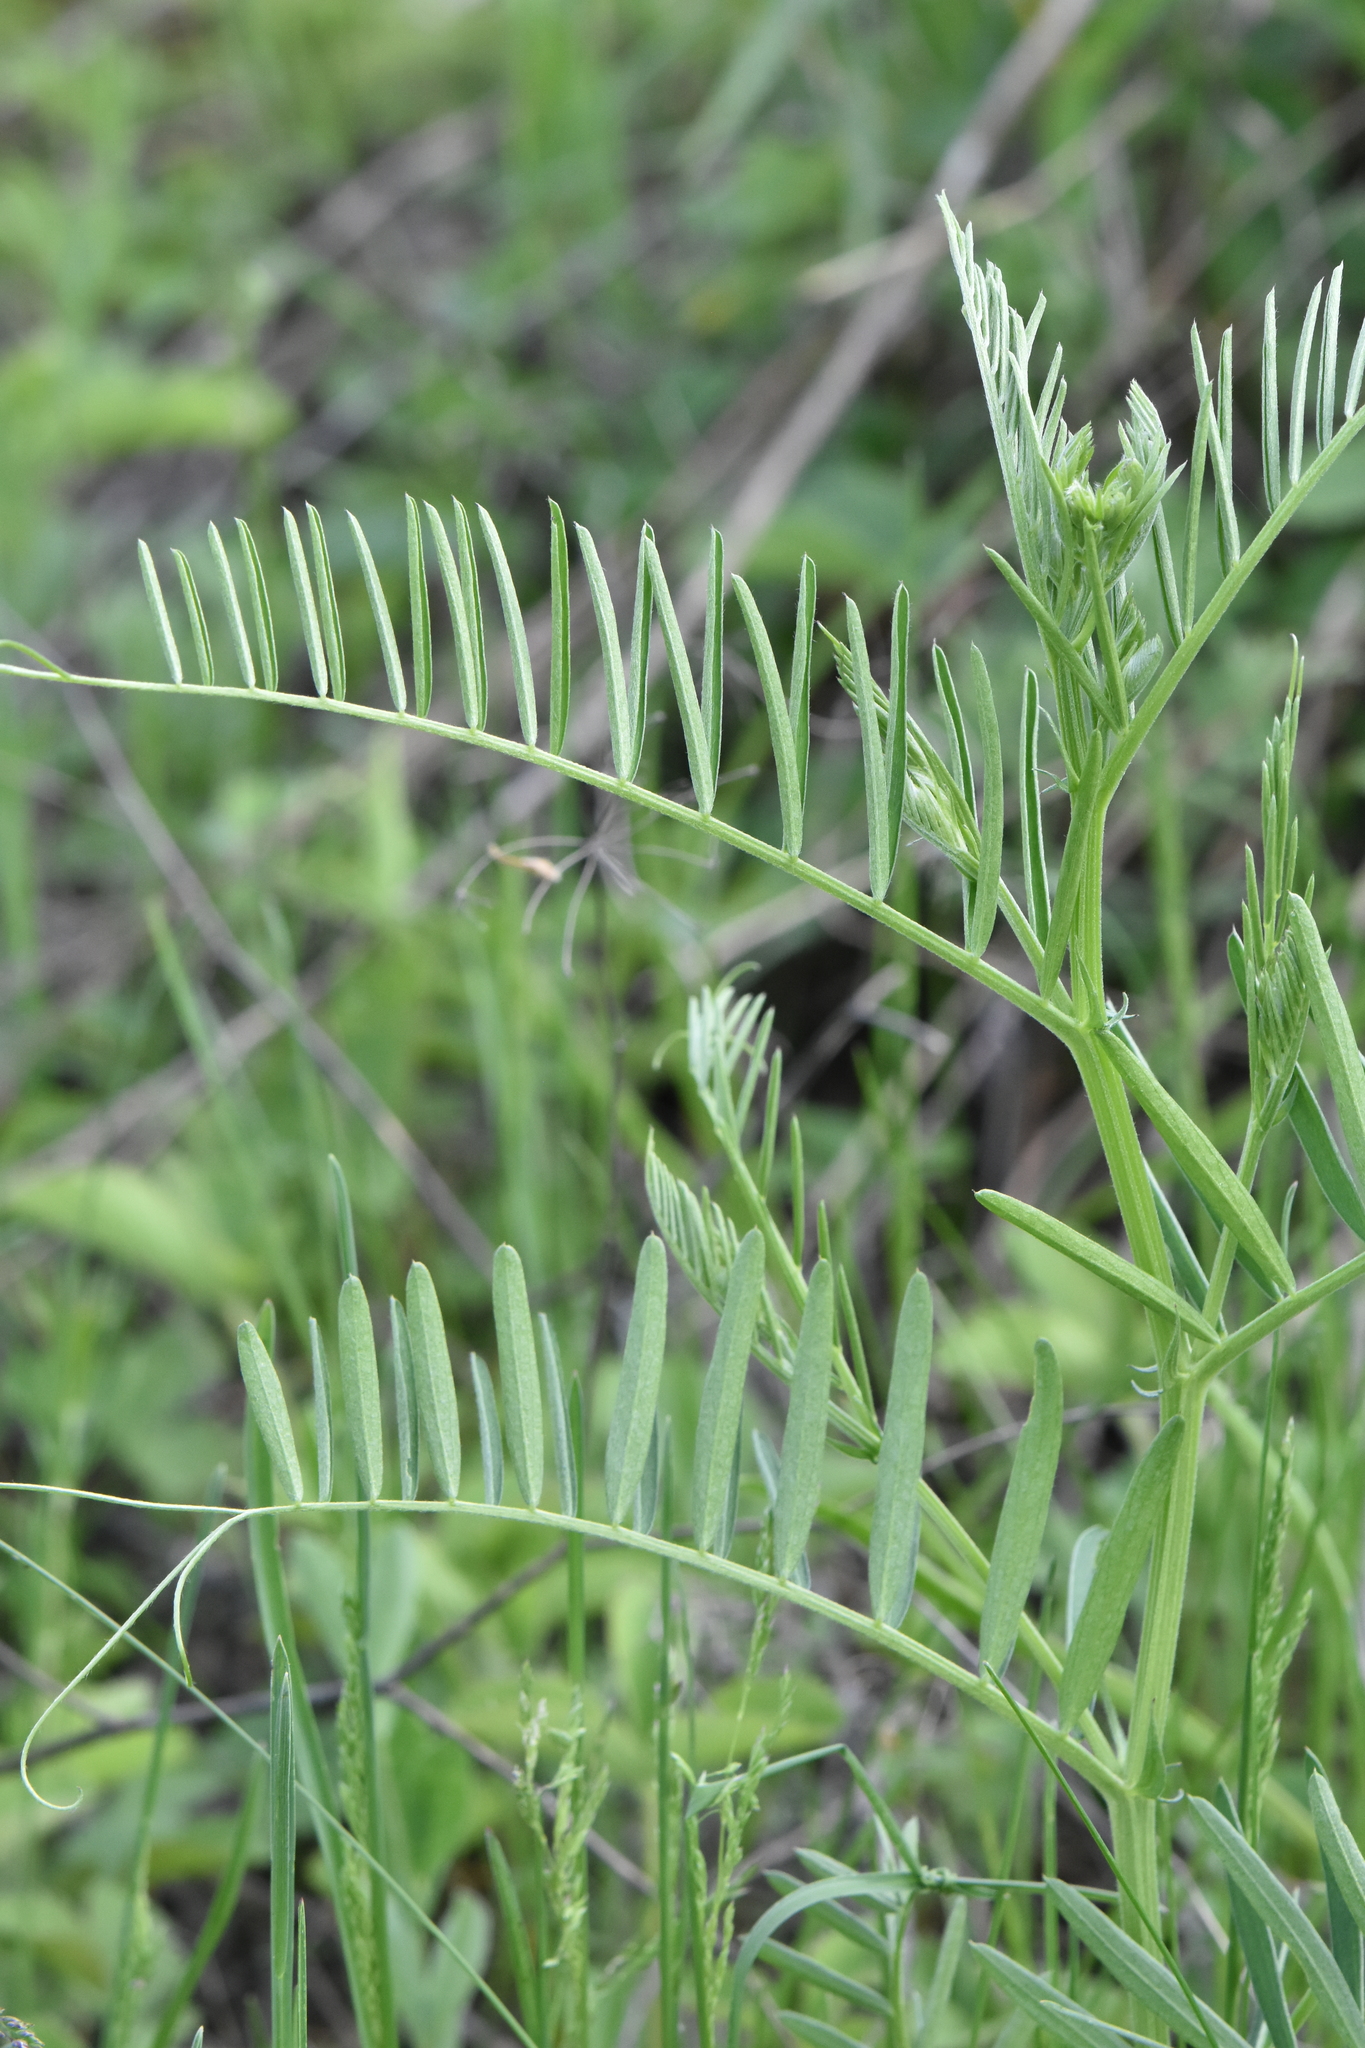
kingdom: Plantae
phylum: Tracheophyta
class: Magnoliopsida
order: Fabales
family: Fabaceae
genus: Vicia
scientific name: Vicia tenuifolia
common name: Fine-leaved vetch
